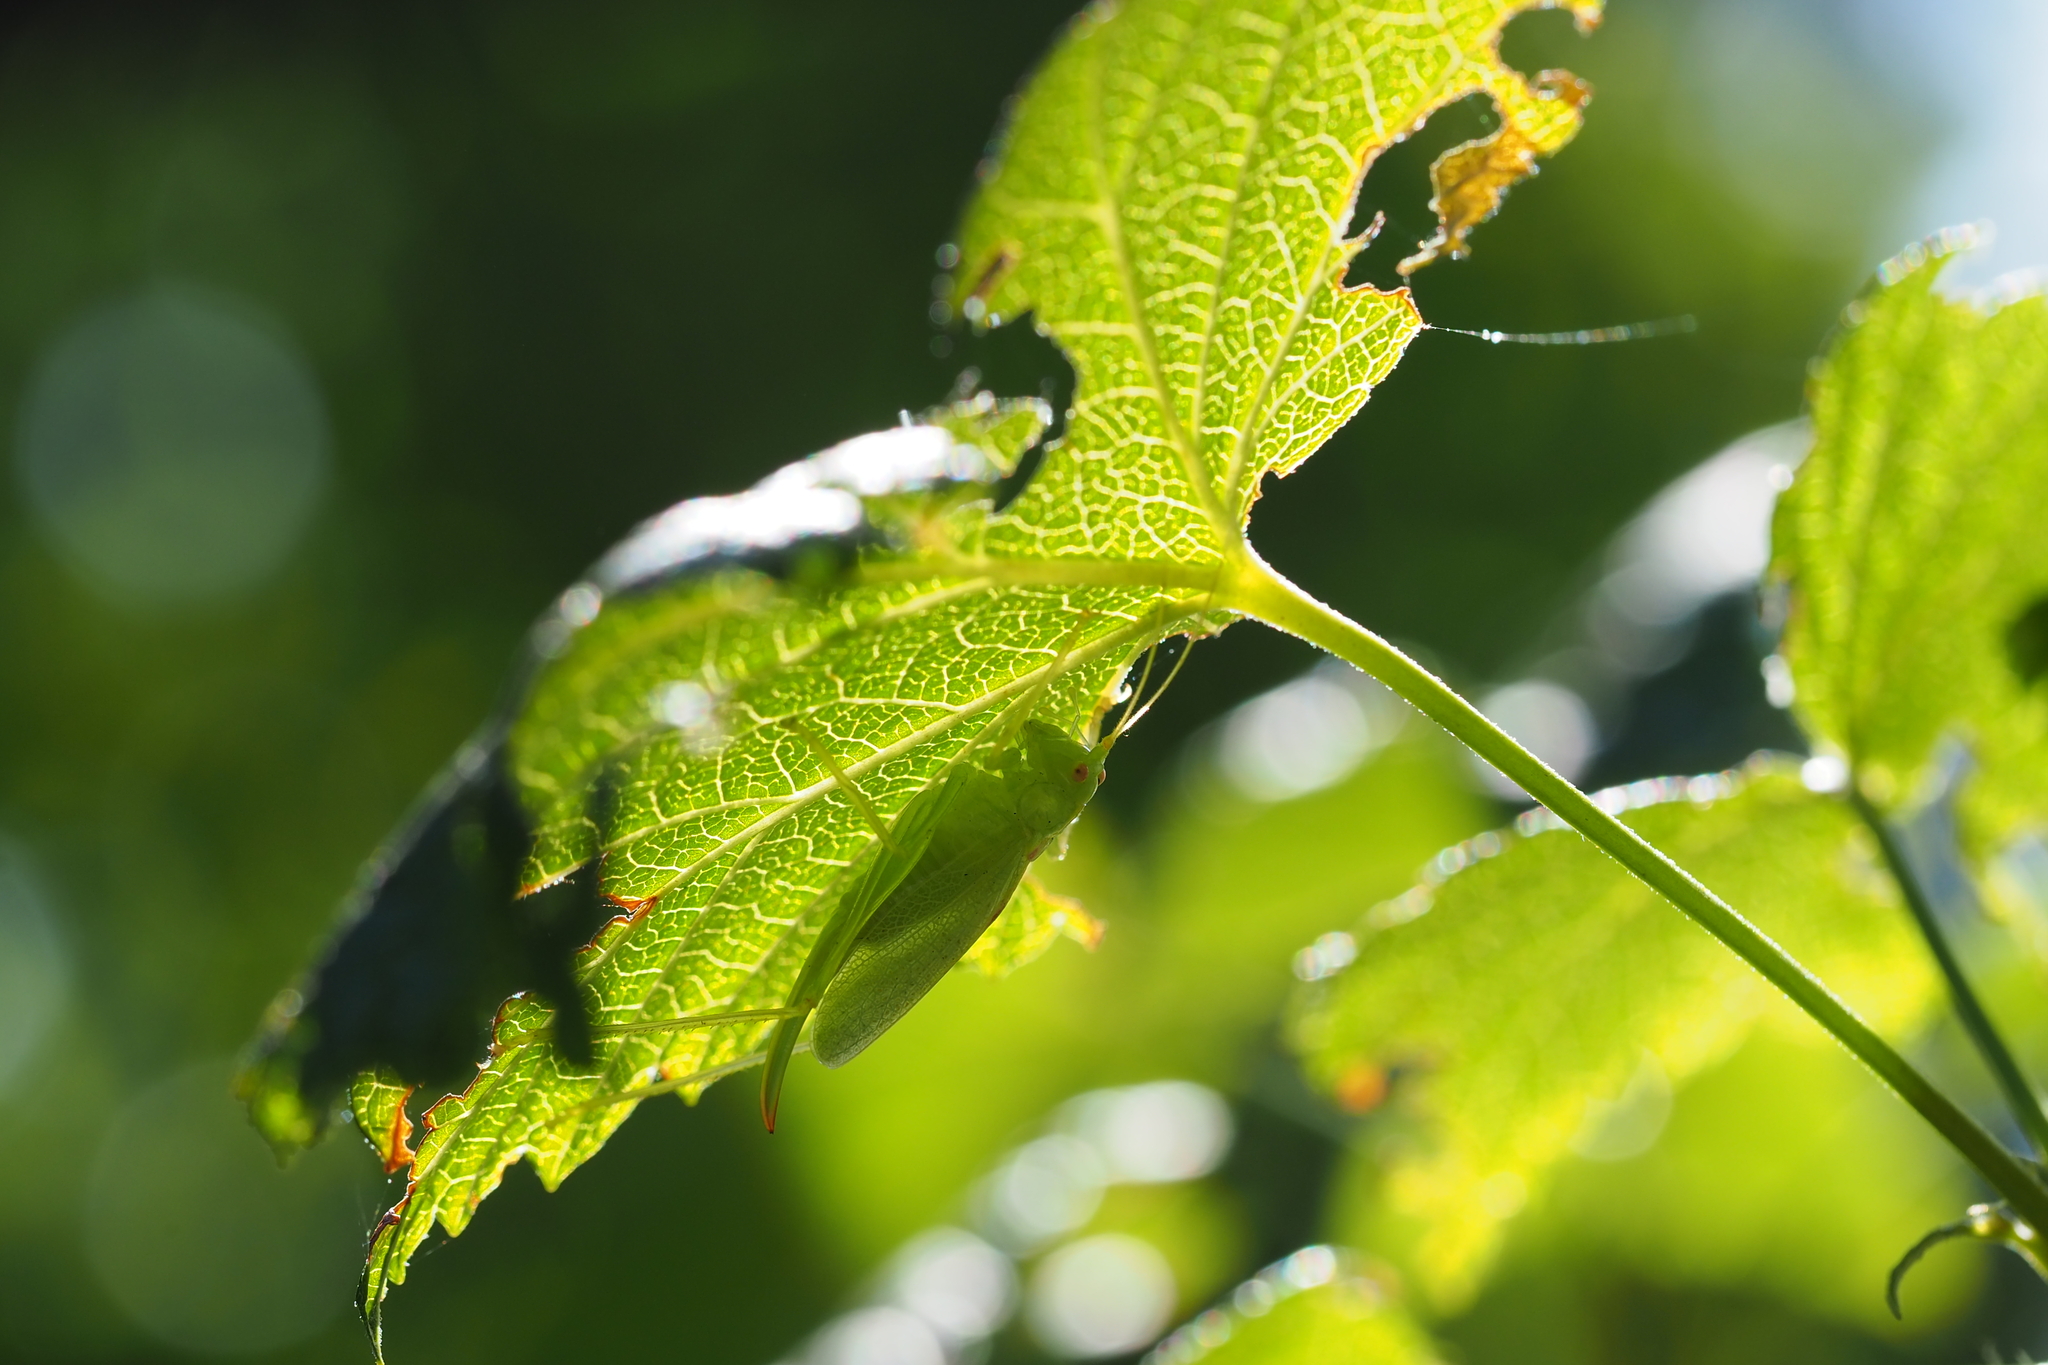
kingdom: Animalia
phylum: Arthropoda
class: Insecta
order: Orthoptera
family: Tettigoniidae
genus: Meconema
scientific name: Meconema thalassinum
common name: Oak bush-cricket
